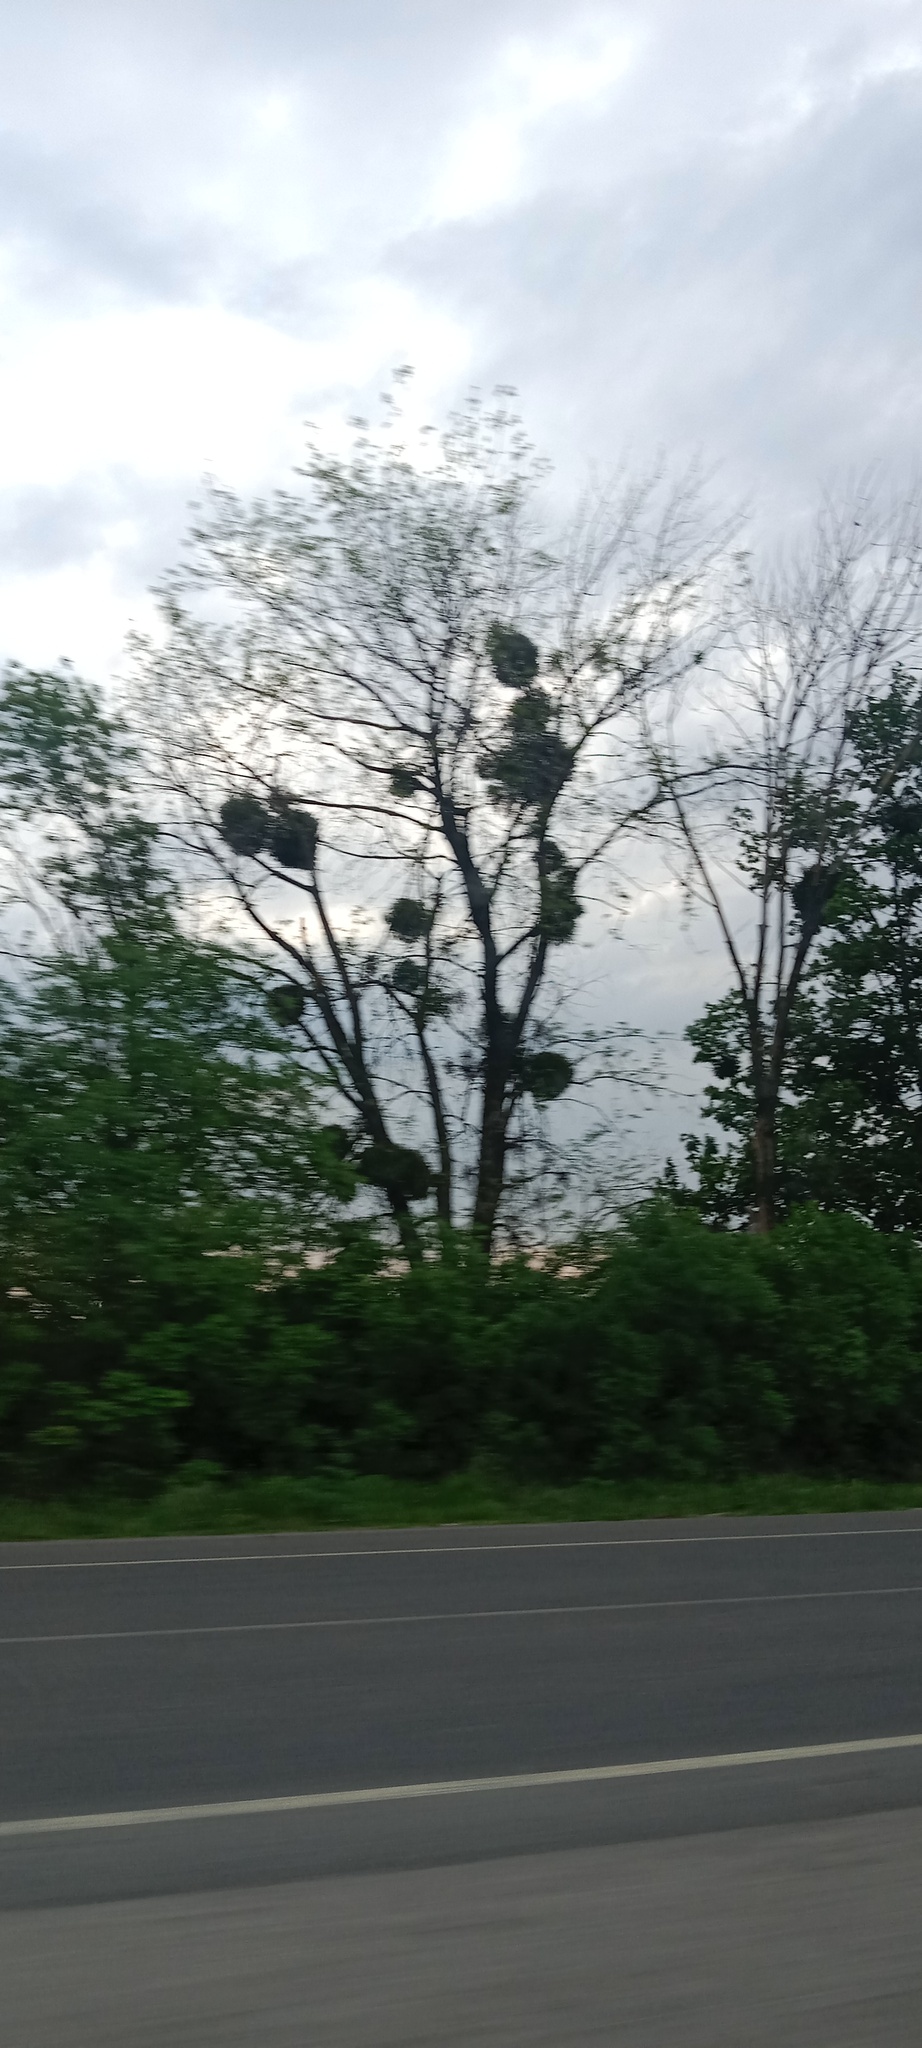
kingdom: Plantae
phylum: Tracheophyta
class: Magnoliopsida
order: Santalales
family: Viscaceae
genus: Viscum
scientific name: Viscum album
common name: Mistletoe
